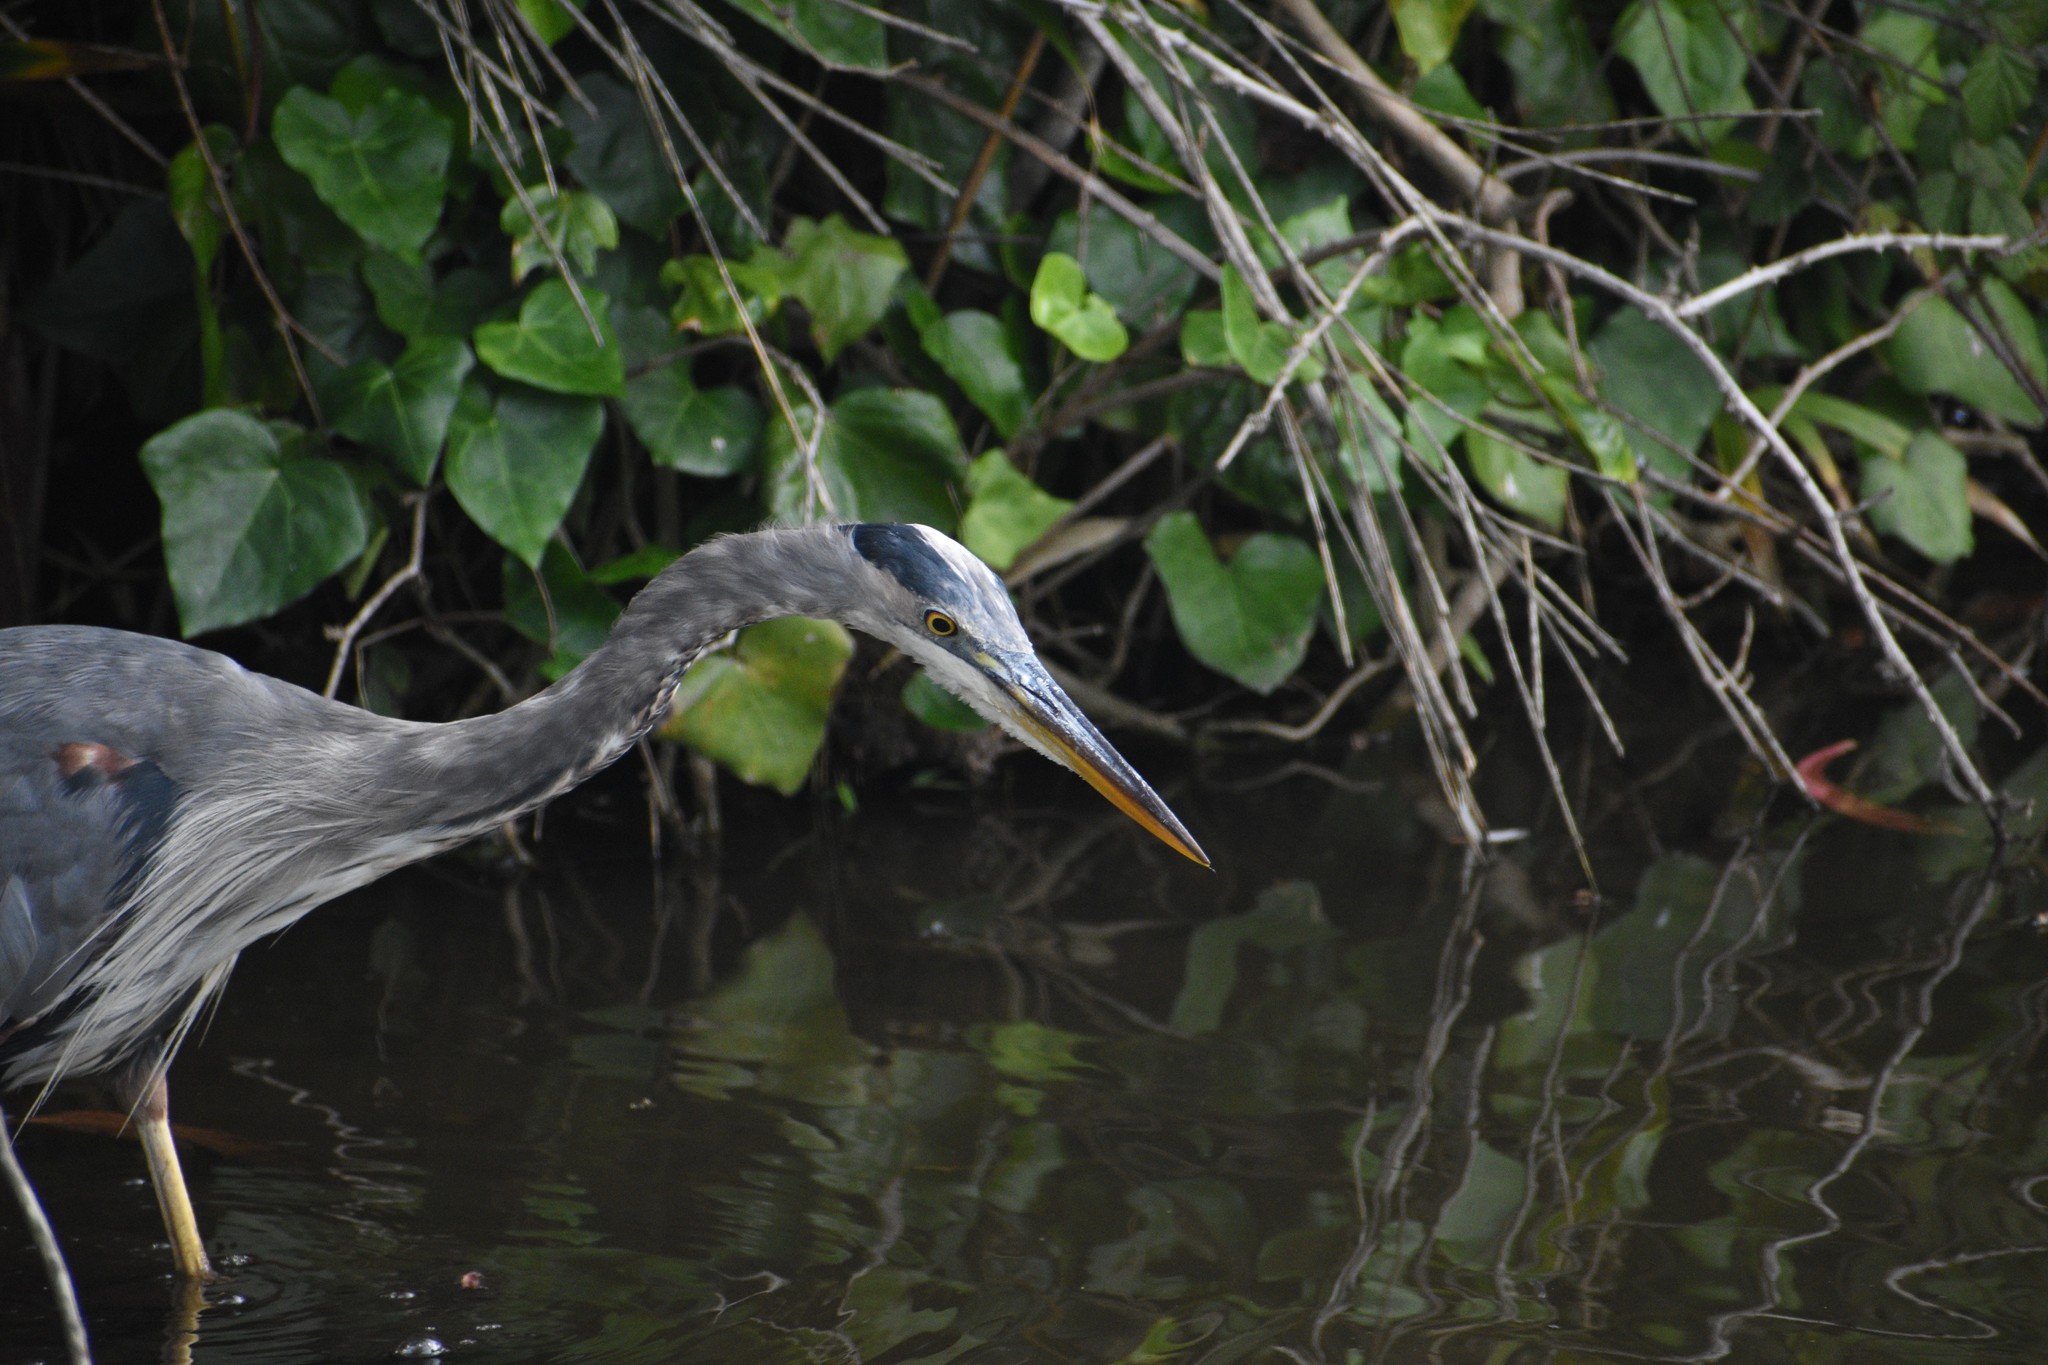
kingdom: Animalia
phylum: Chordata
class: Aves
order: Pelecaniformes
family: Ardeidae
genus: Ardea
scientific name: Ardea herodias
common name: Great blue heron
